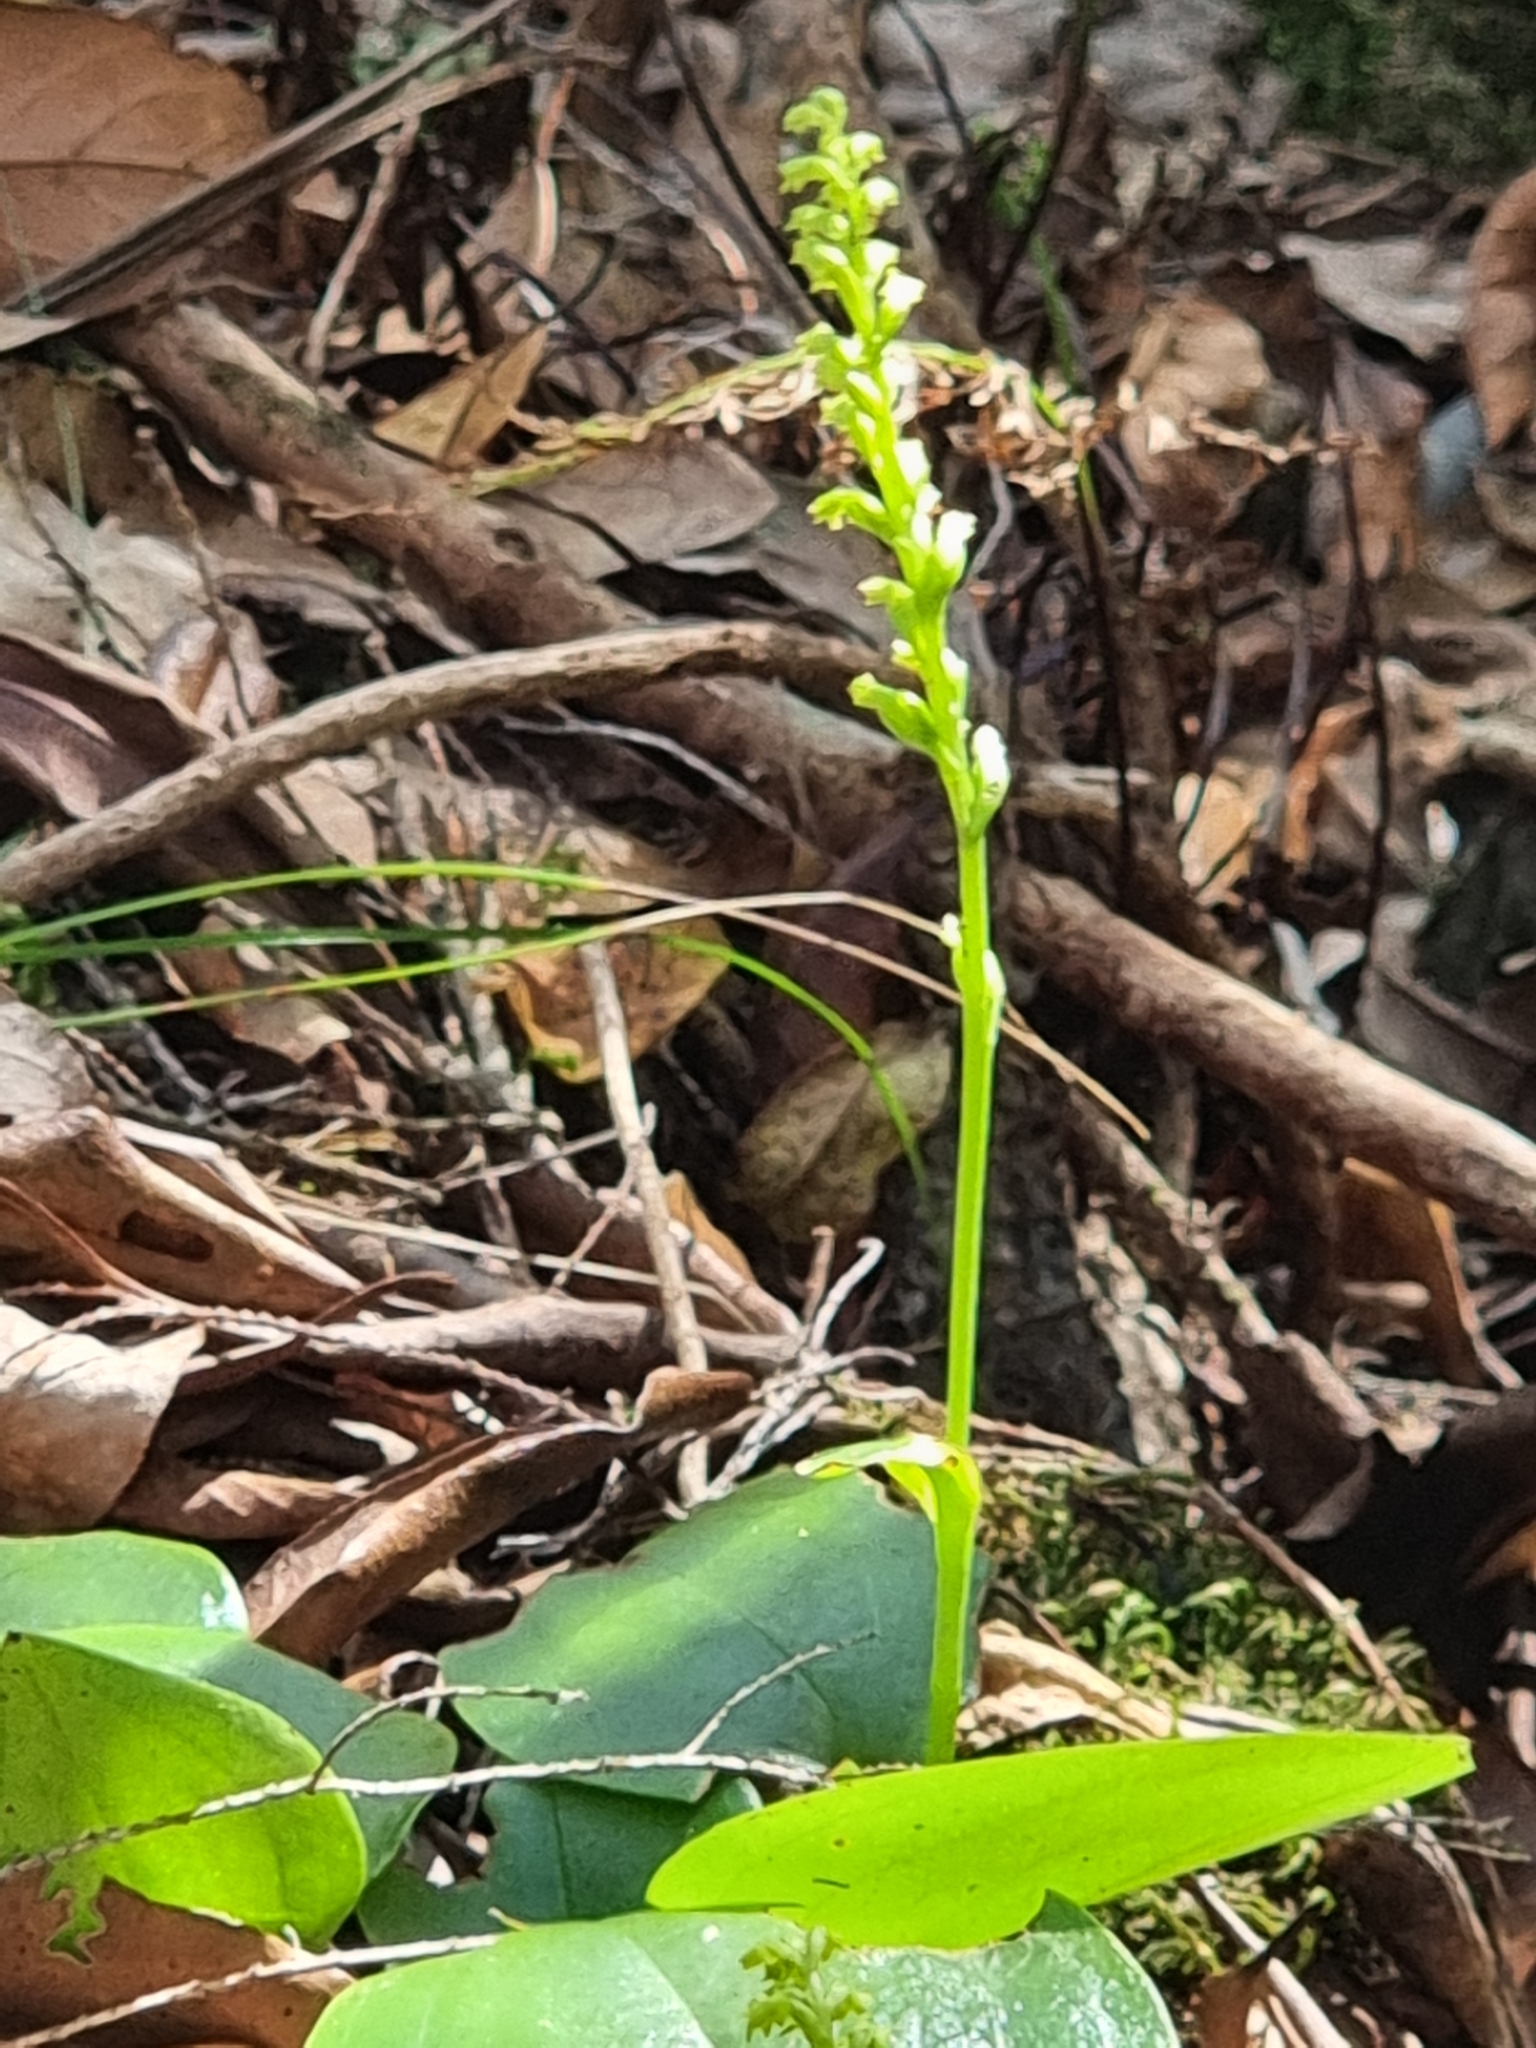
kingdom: Plantae
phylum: Tracheophyta
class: Liliopsida
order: Asparagales
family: Orchidaceae
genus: Gennaria
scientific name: Gennaria diphylla
